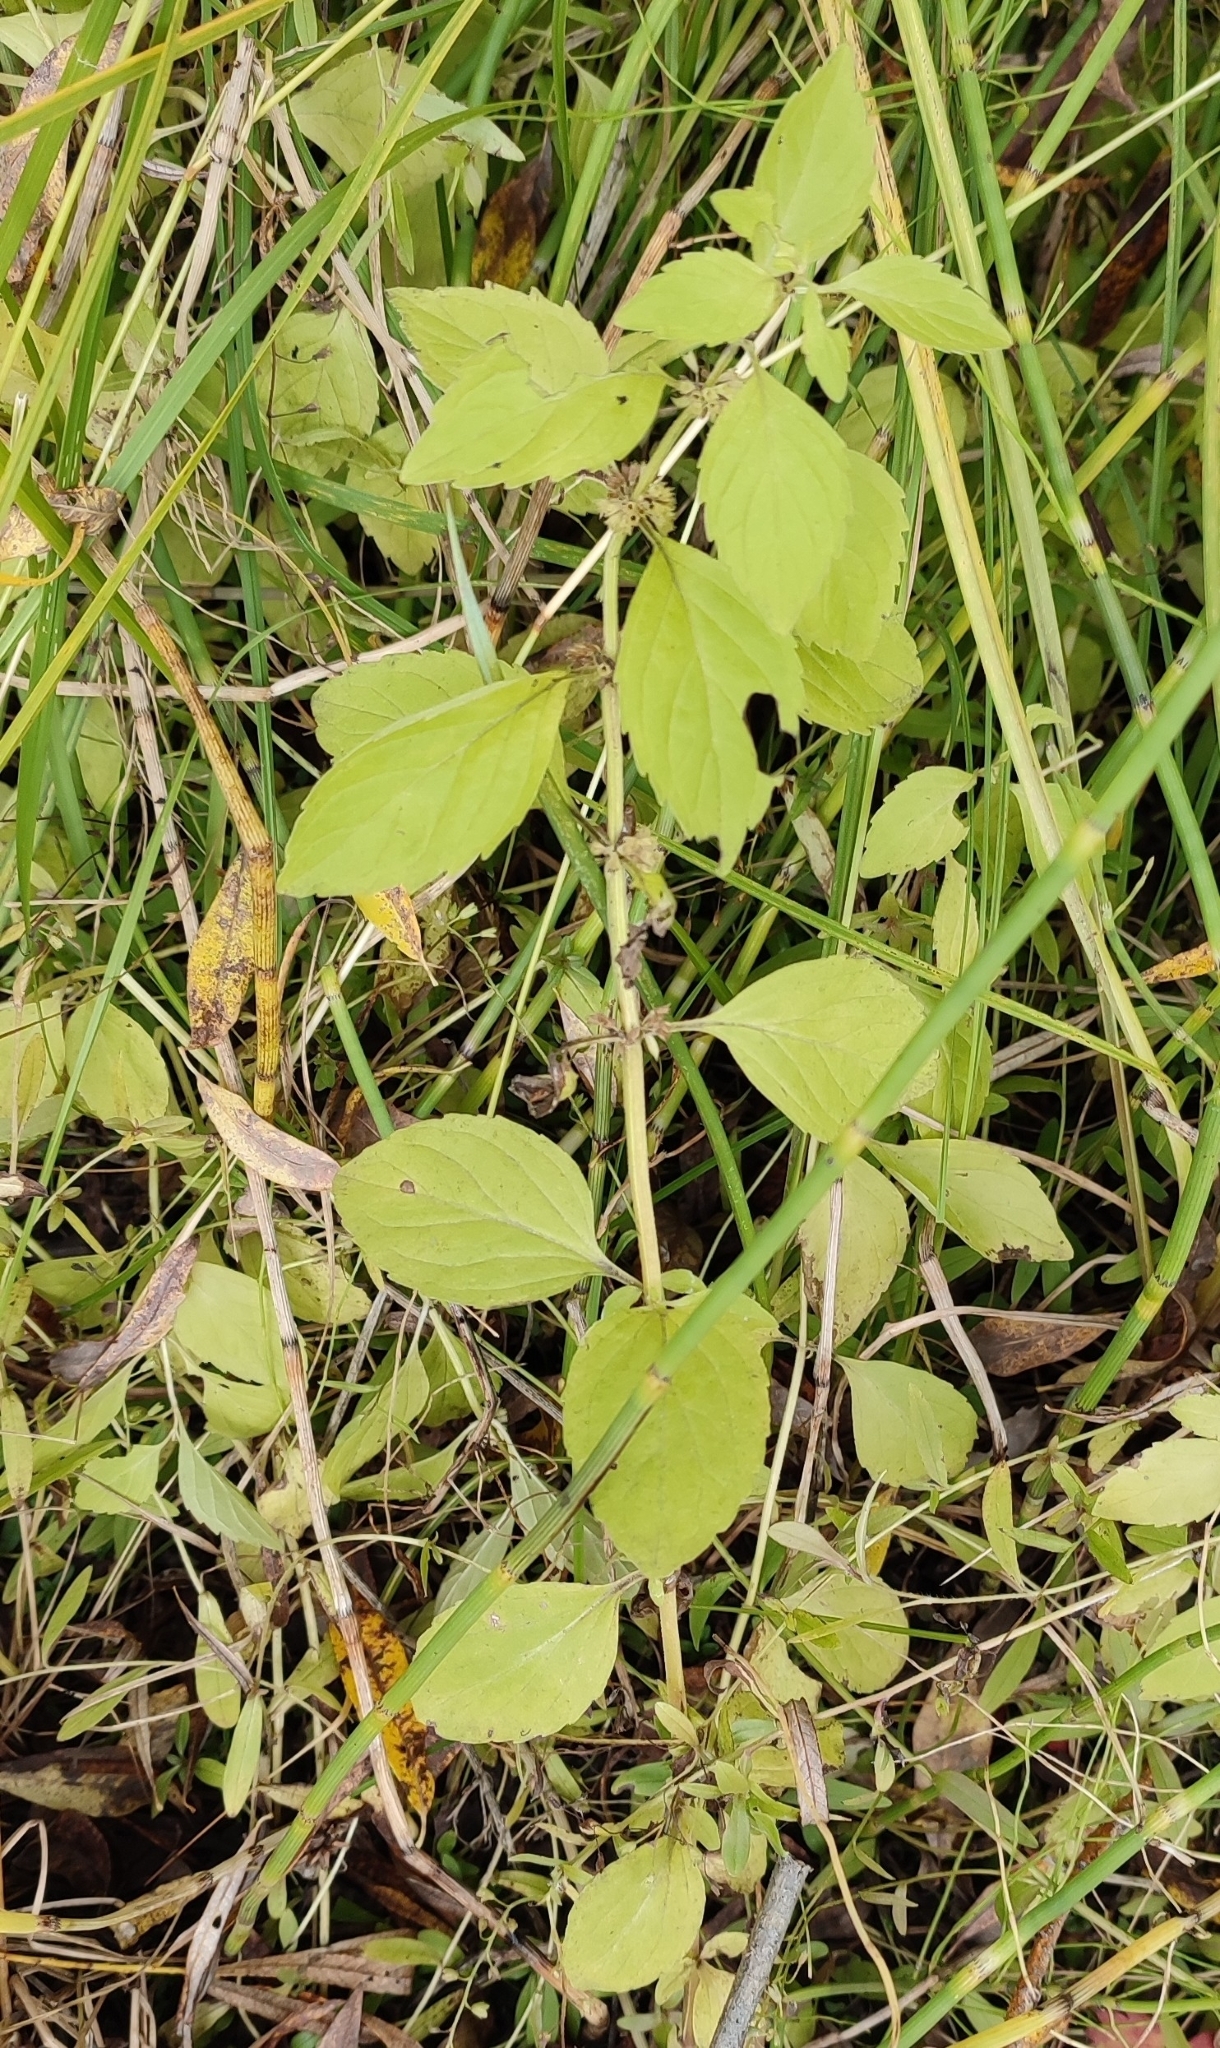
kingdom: Plantae
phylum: Tracheophyta
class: Magnoliopsida
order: Lamiales
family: Lamiaceae
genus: Mentha
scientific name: Mentha arvensis
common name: Corn mint
